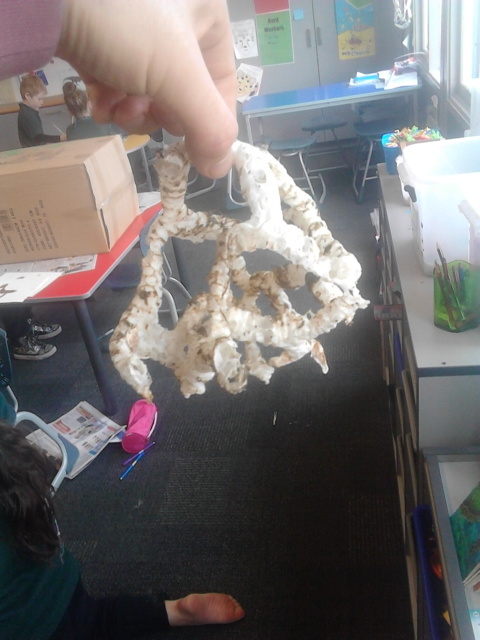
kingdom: Fungi
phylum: Basidiomycota
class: Agaricomycetes
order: Phallales
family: Phallaceae
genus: Ileodictyon
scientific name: Ileodictyon cibarium
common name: Basket fungus
